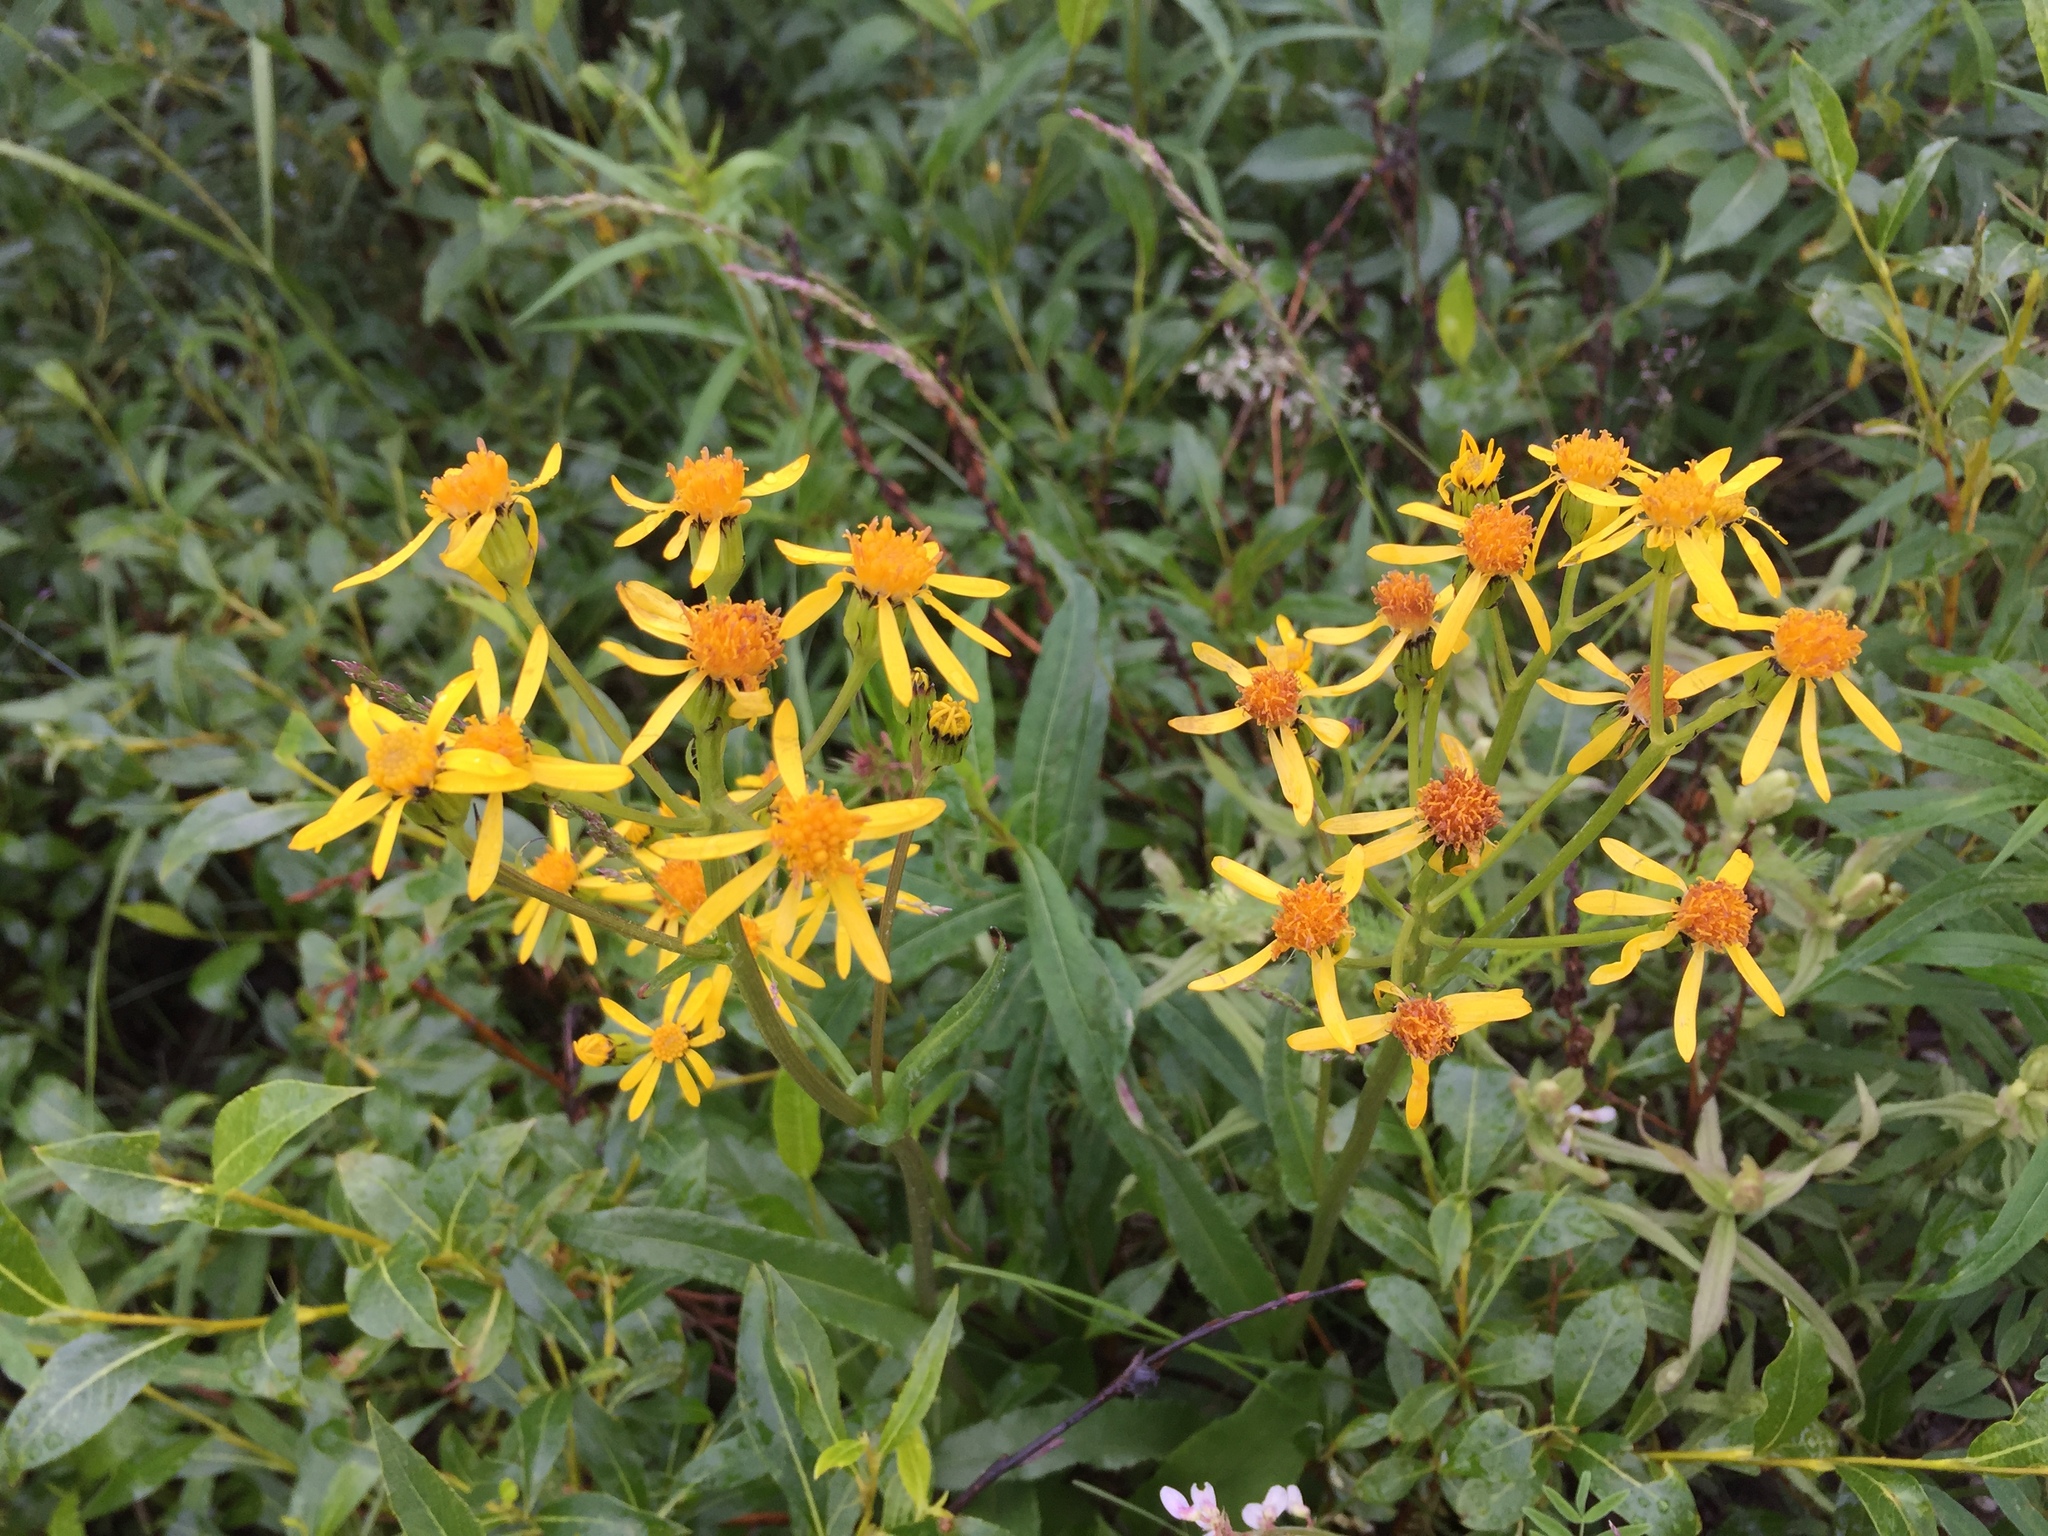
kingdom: Plantae
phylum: Tracheophyta
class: Magnoliopsida
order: Asterales
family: Asteraceae
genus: Senecio
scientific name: Senecio lugens
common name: Black-tip groundsel
